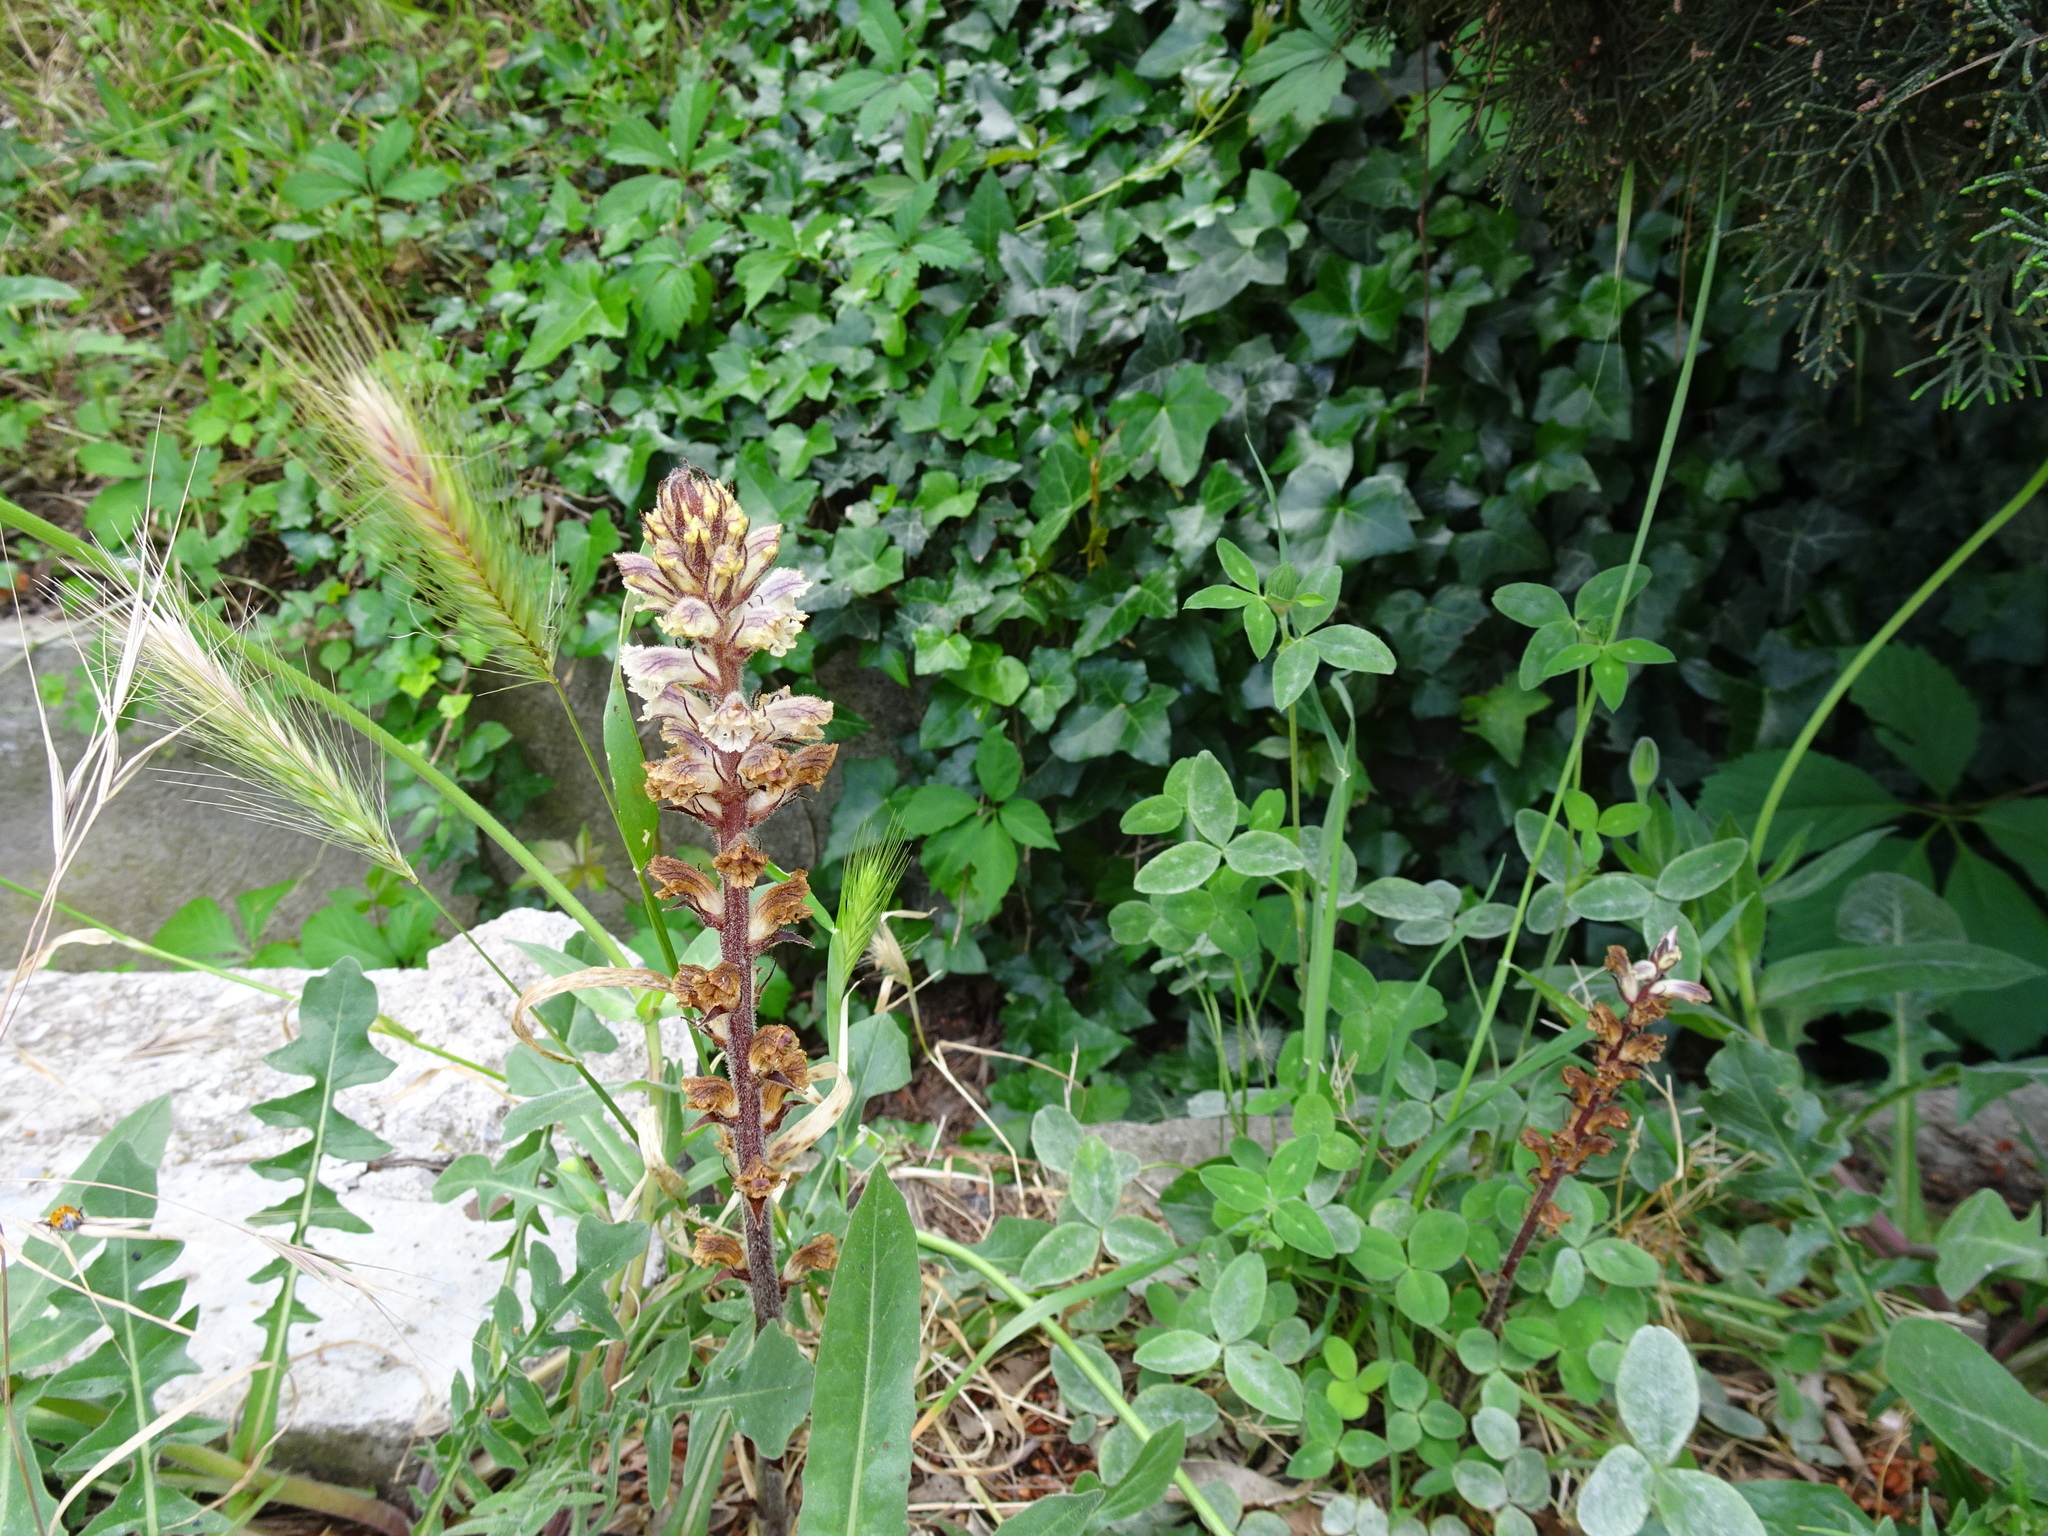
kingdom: Plantae
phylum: Tracheophyta
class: Magnoliopsida
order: Lamiales
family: Orobanchaceae
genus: Orobanche
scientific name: Orobanche minor
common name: Common broomrape
